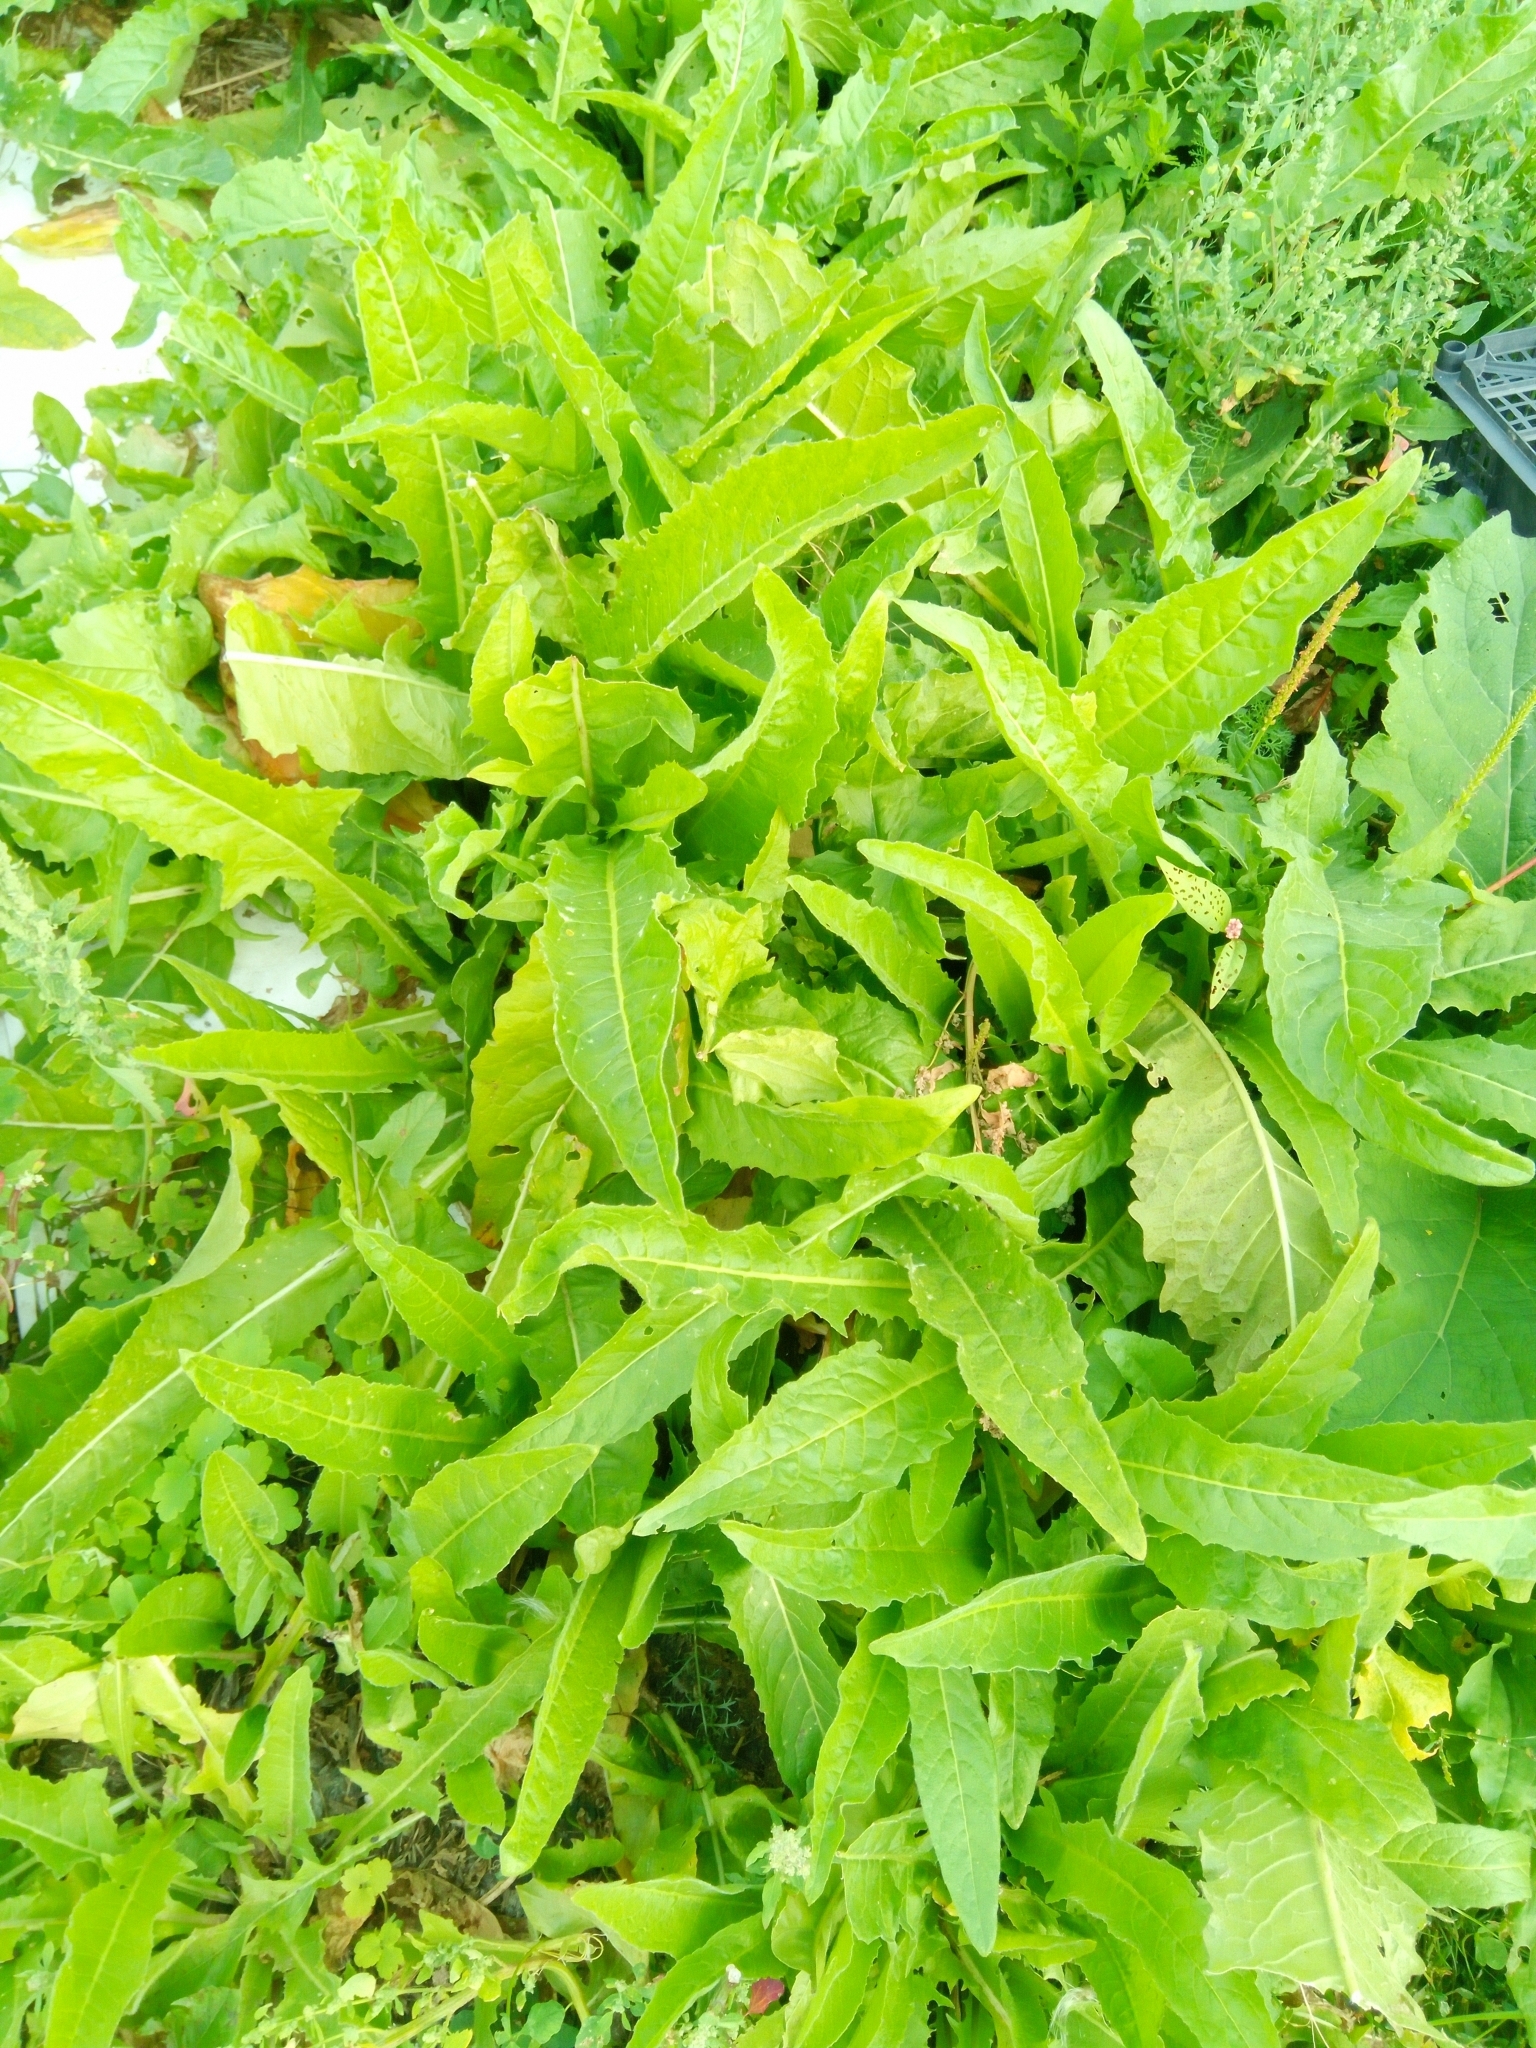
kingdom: Plantae
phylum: Tracheophyta
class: Magnoliopsida
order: Brassicales
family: Brassicaceae
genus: Bunias
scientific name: Bunias orientalis
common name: Warty-cabbage
